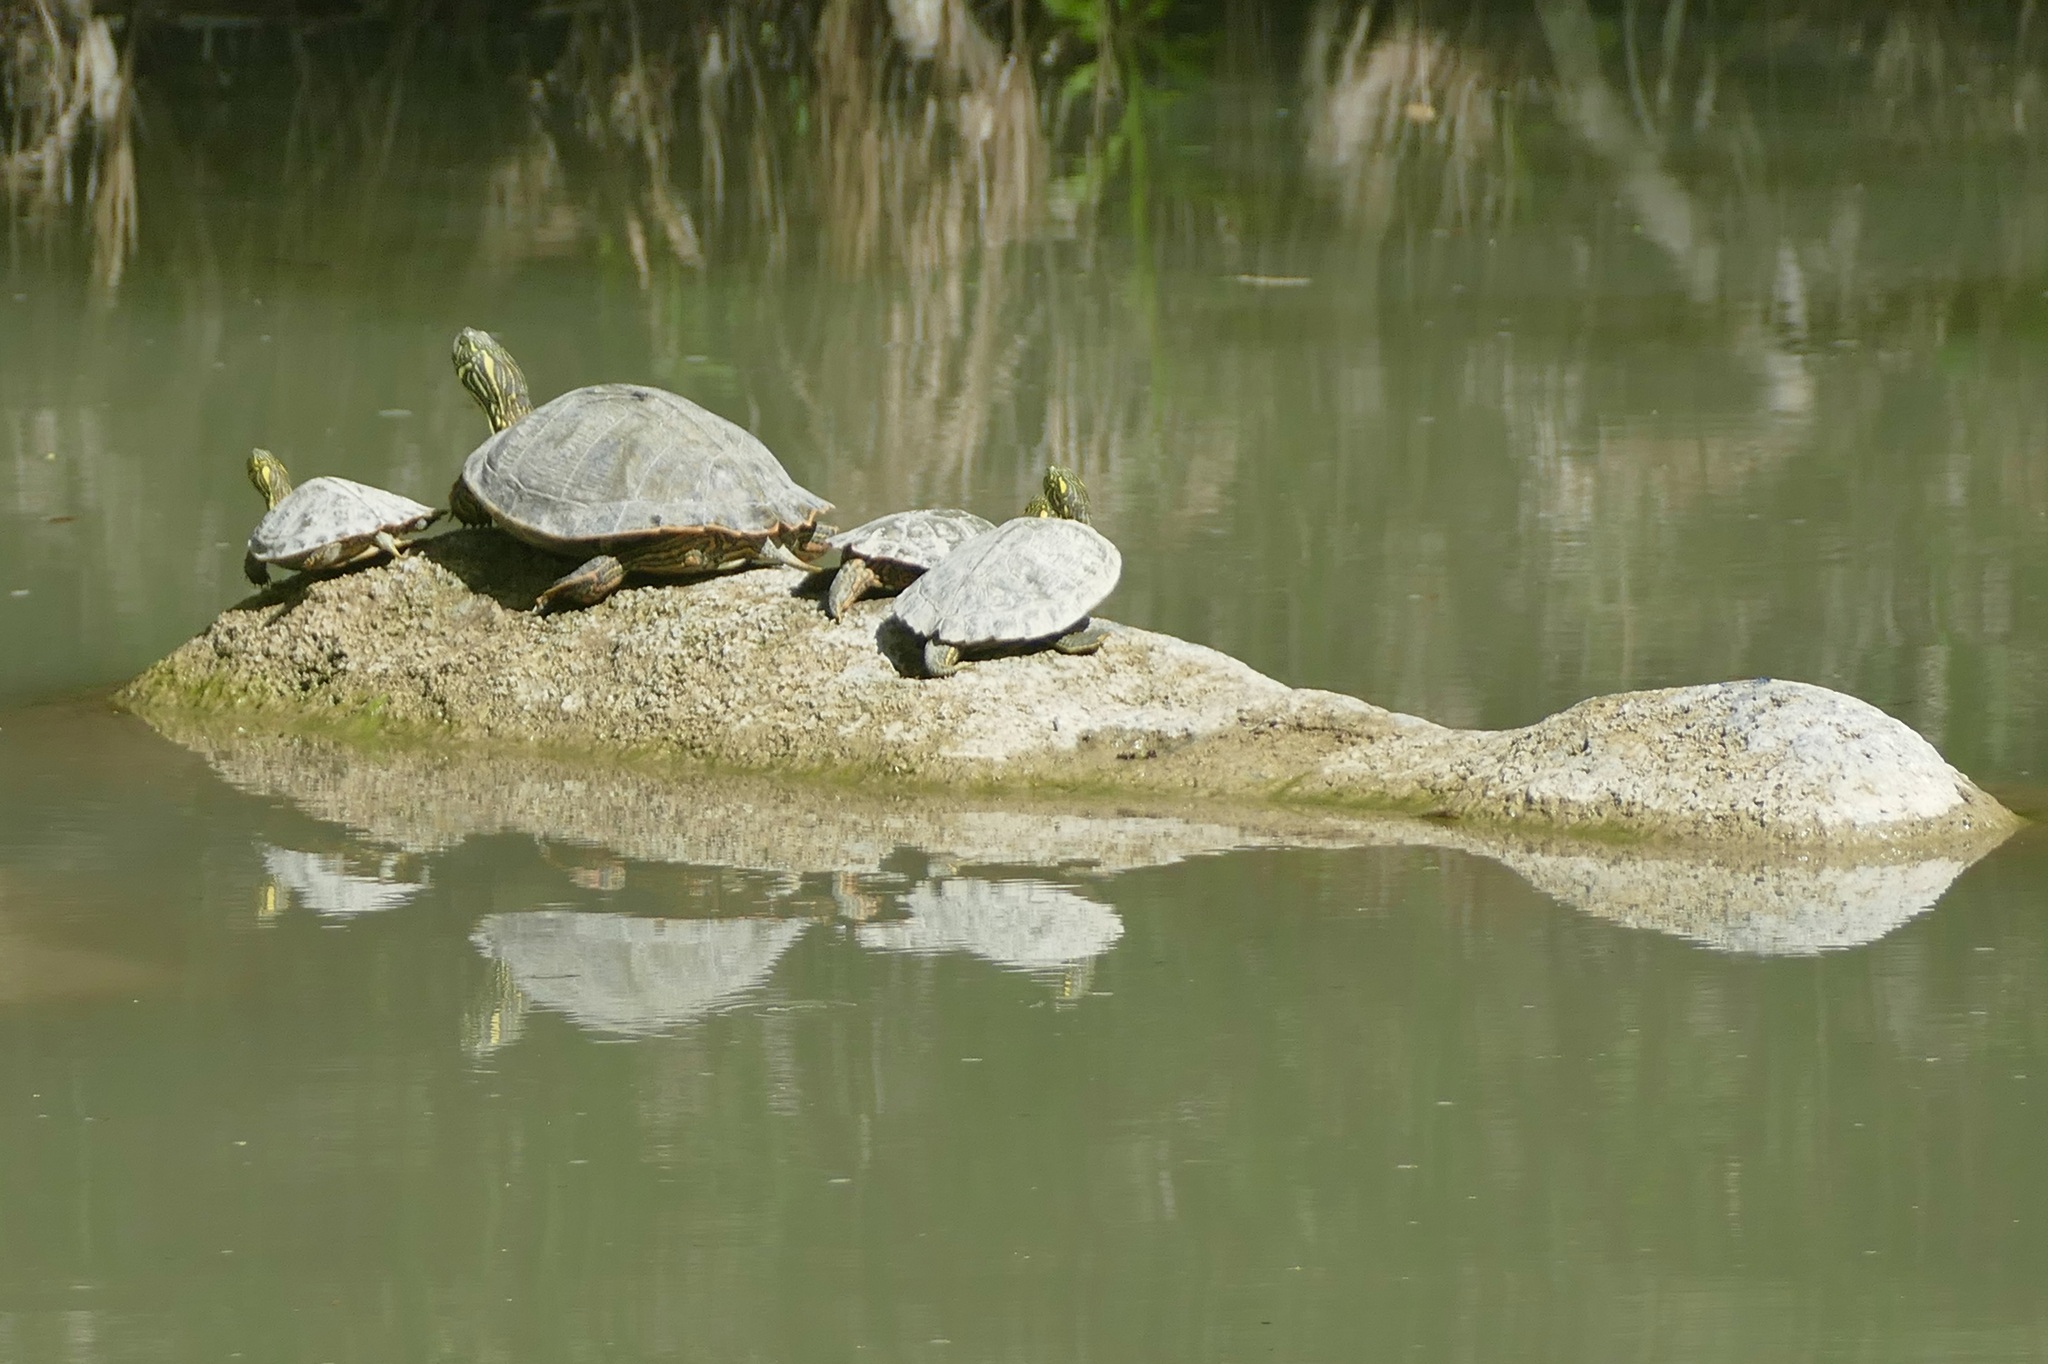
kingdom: Animalia
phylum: Chordata
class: Testudines
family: Emydidae
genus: Pseudemys
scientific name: Pseudemys texana
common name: Texas river cooter
